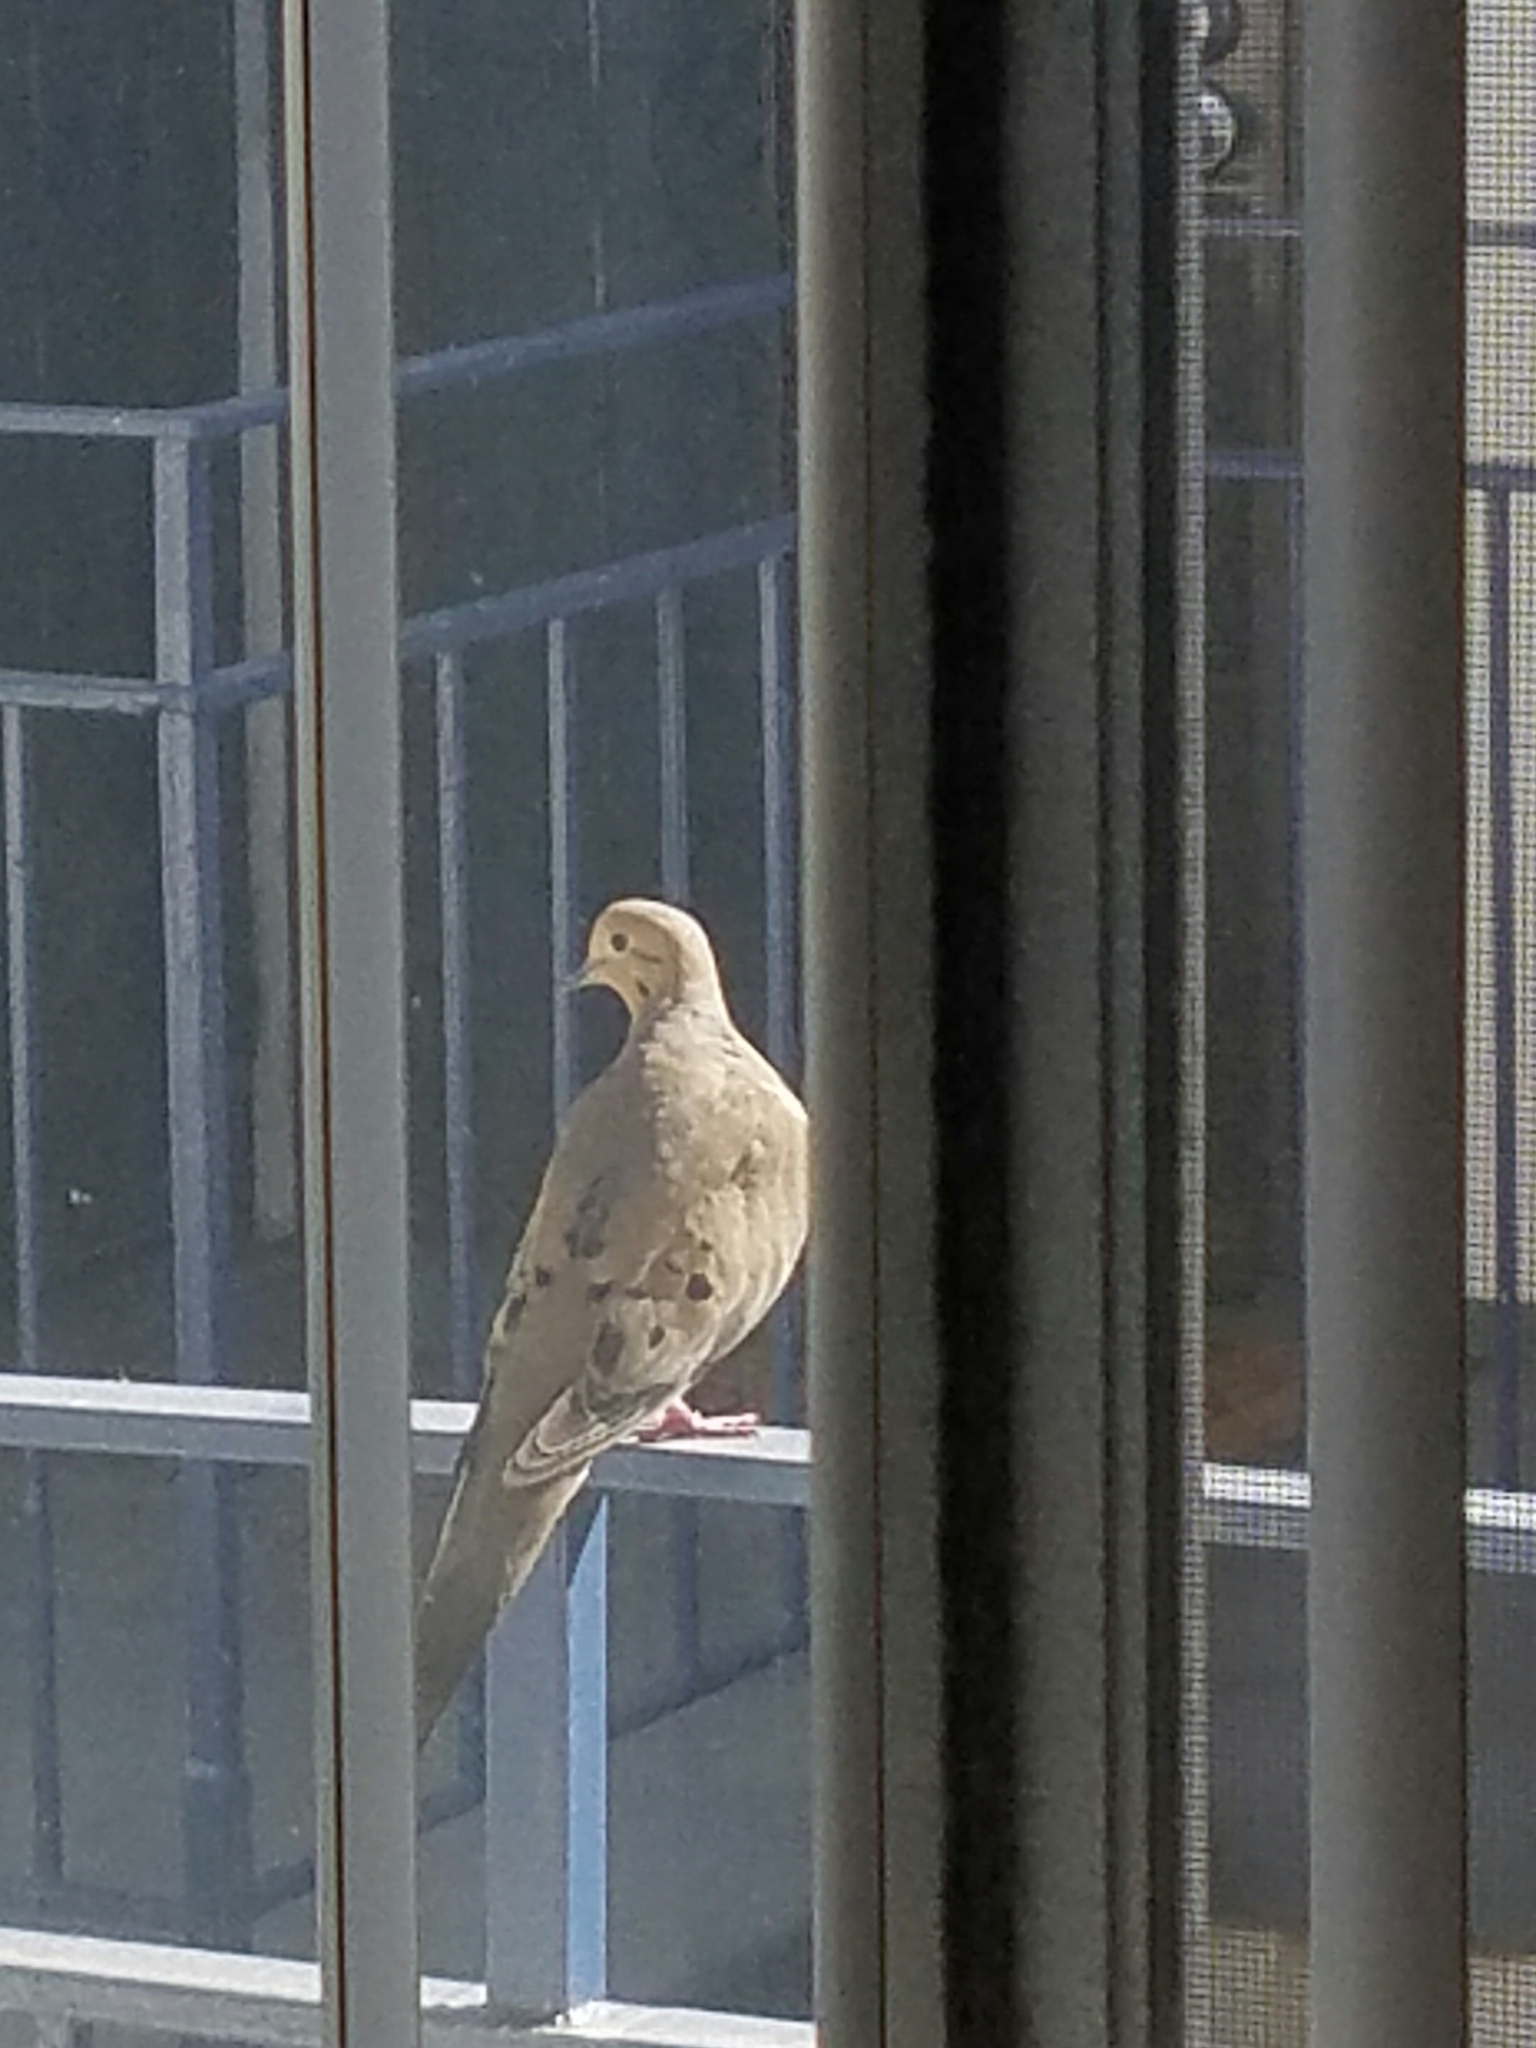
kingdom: Animalia
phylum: Chordata
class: Aves
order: Columbiformes
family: Columbidae
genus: Zenaida
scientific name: Zenaida macroura
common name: Mourning dove
